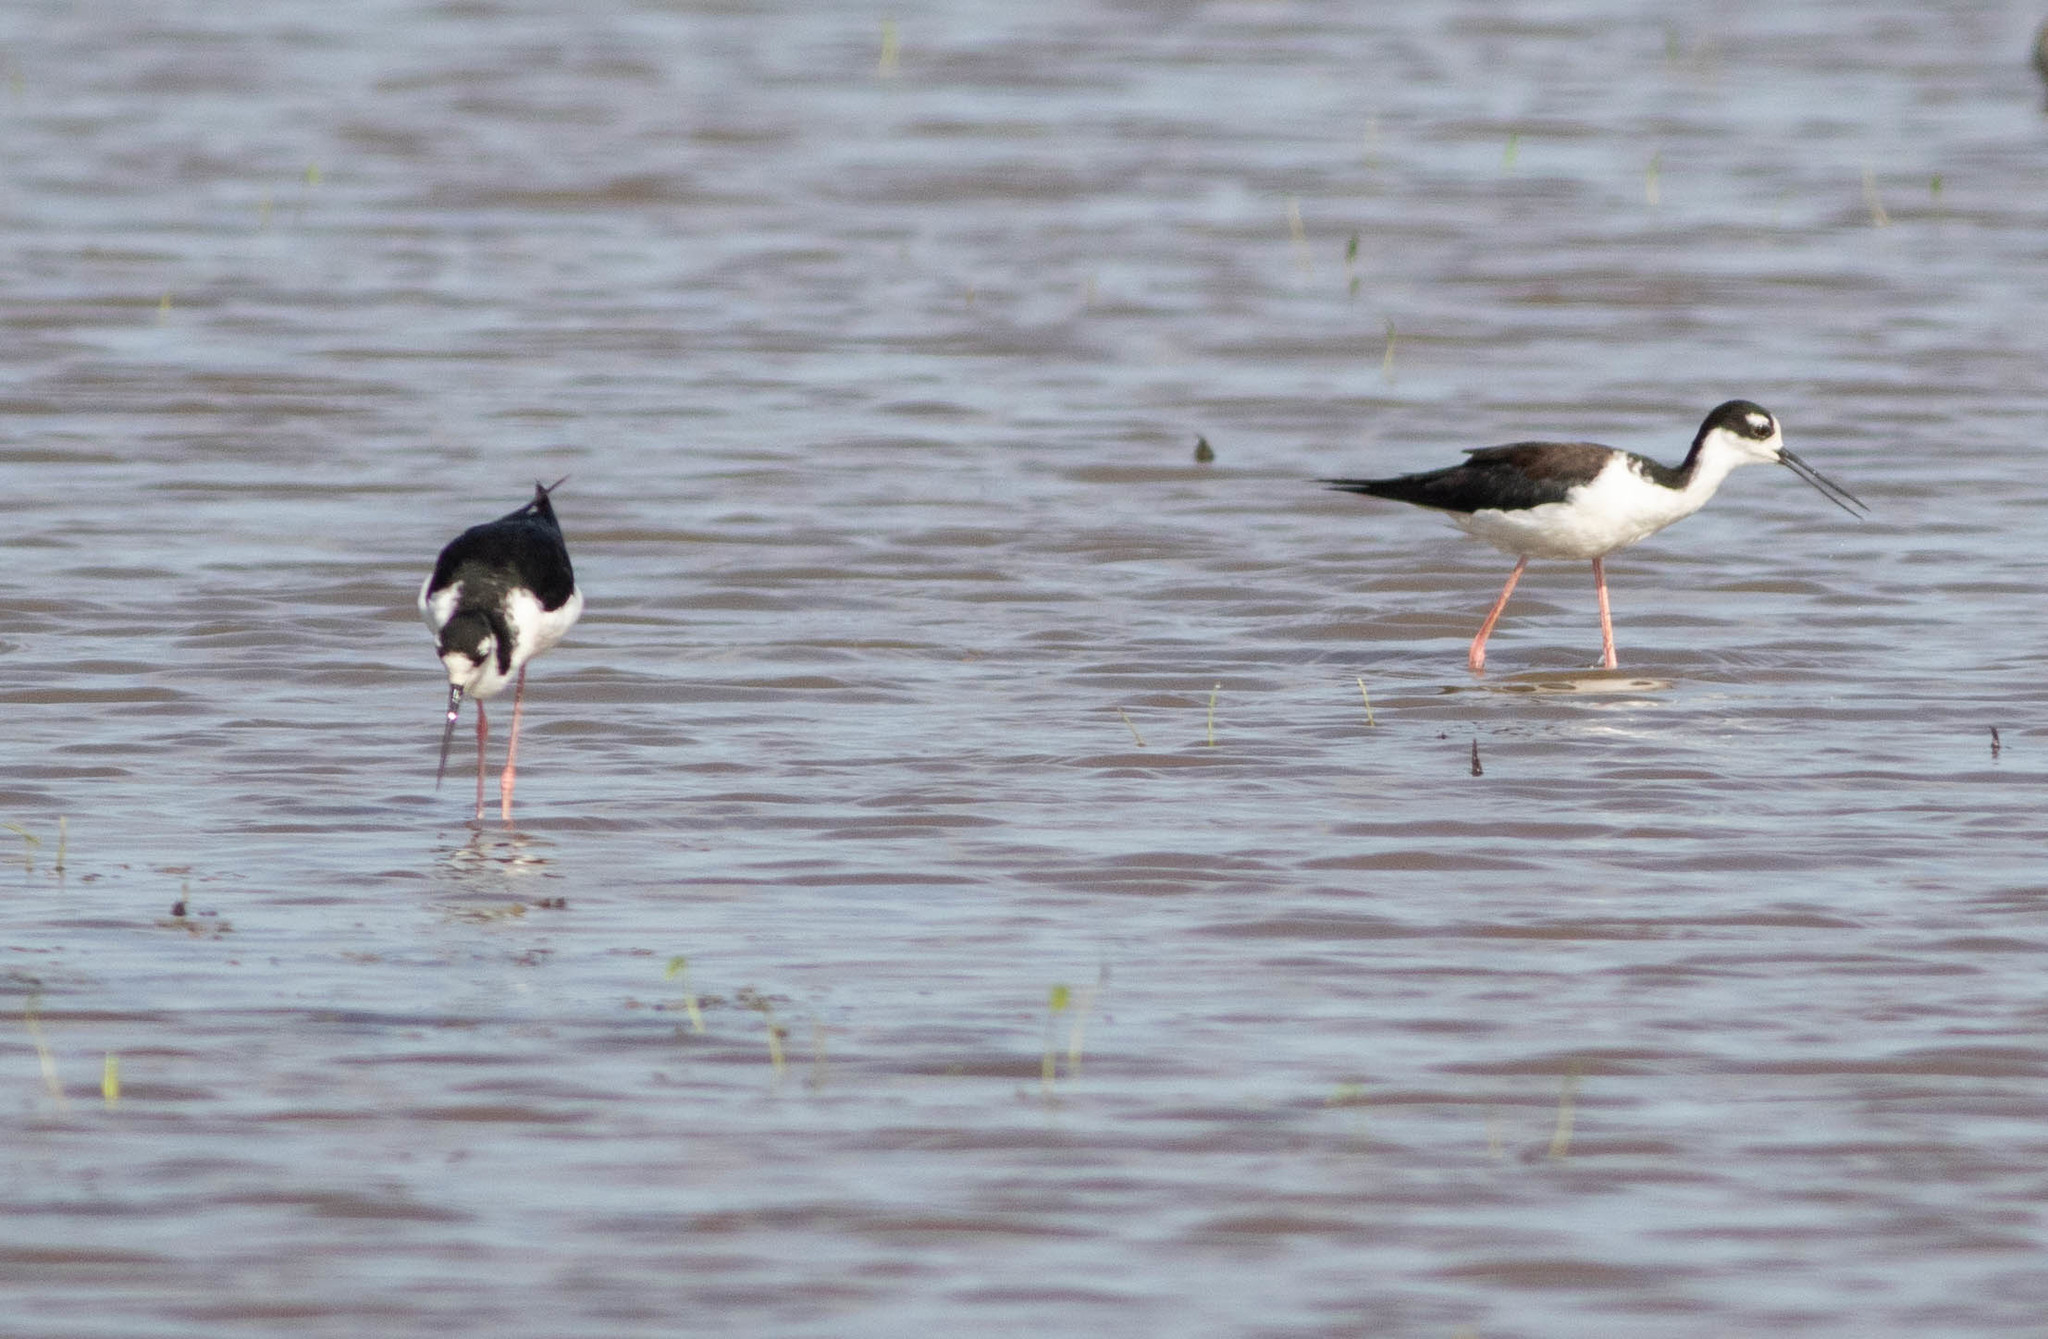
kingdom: Animalia
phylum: Chordata
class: Aves
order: Charadriiformes
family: Recurvirostridae
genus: Himantopus
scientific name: Himantopus mexicanus
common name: Black-necked stilt
